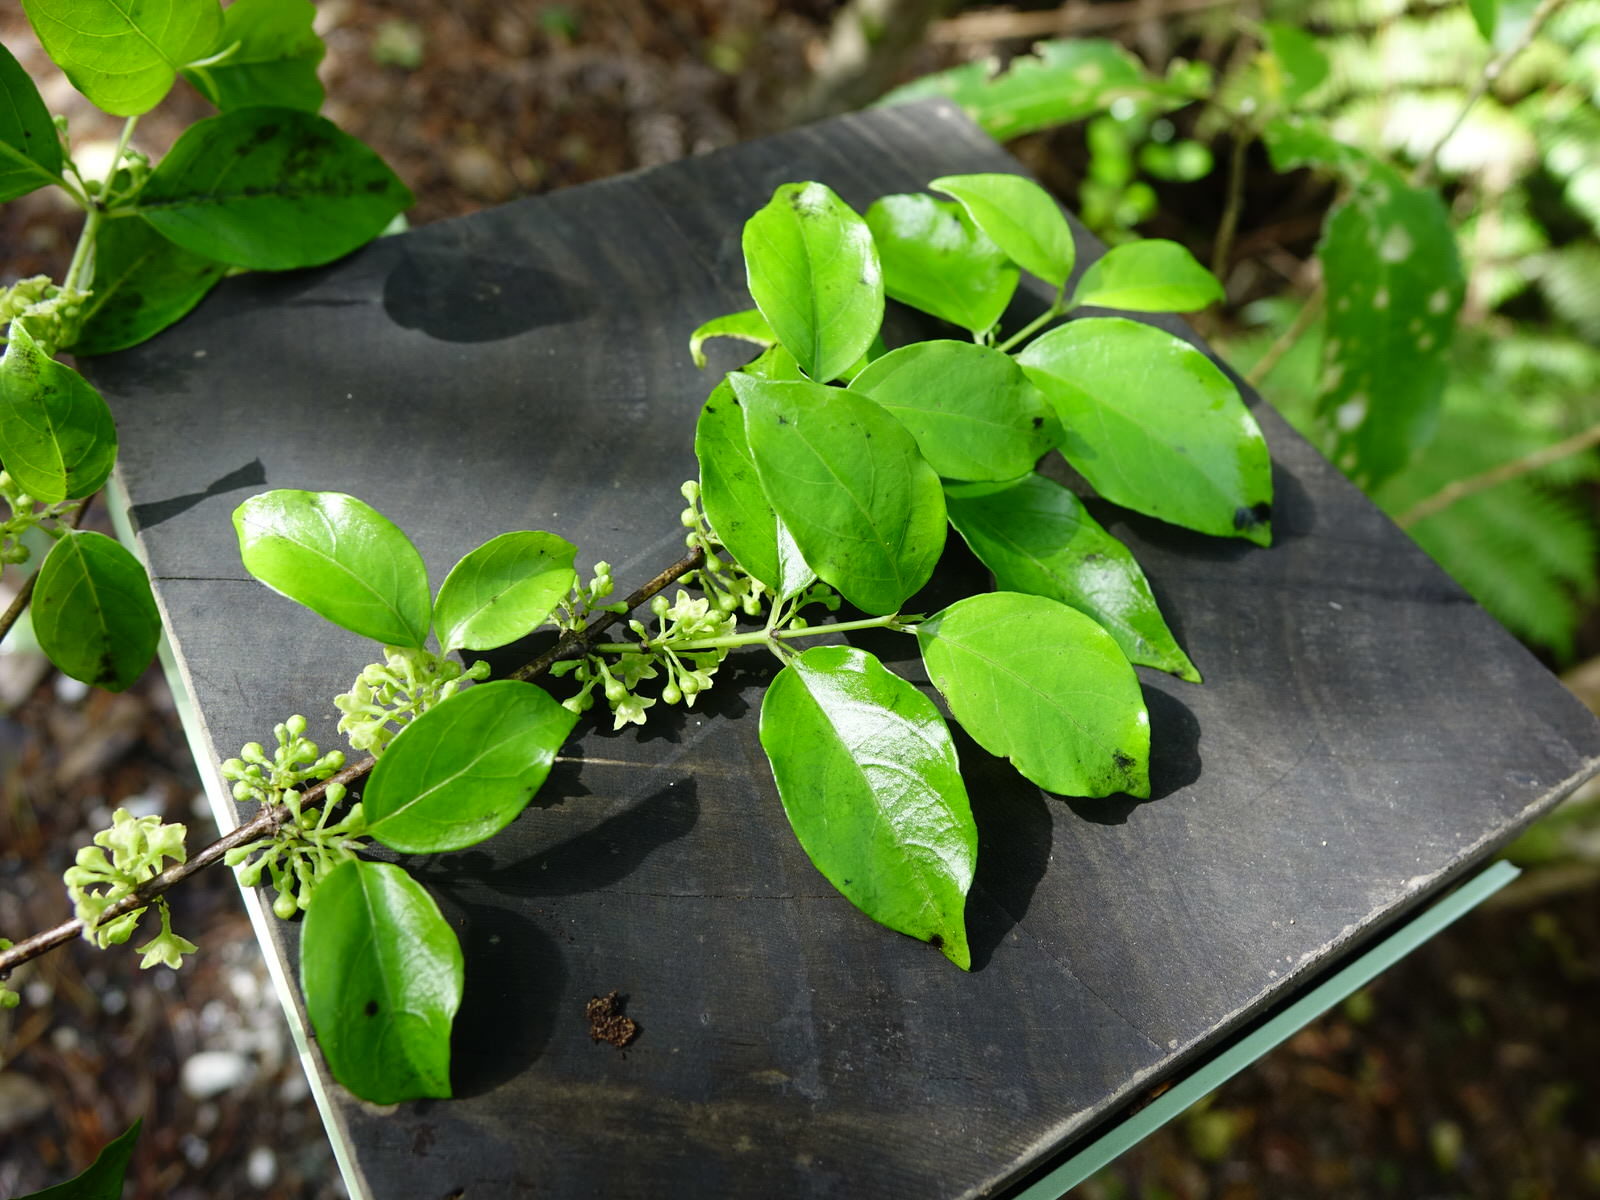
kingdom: Plantae
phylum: Tracheophyta
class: Magnoliopsida
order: Gentianales
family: Loganiaceae
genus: Geniostoma
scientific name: Geniostoma ligustrifolium
